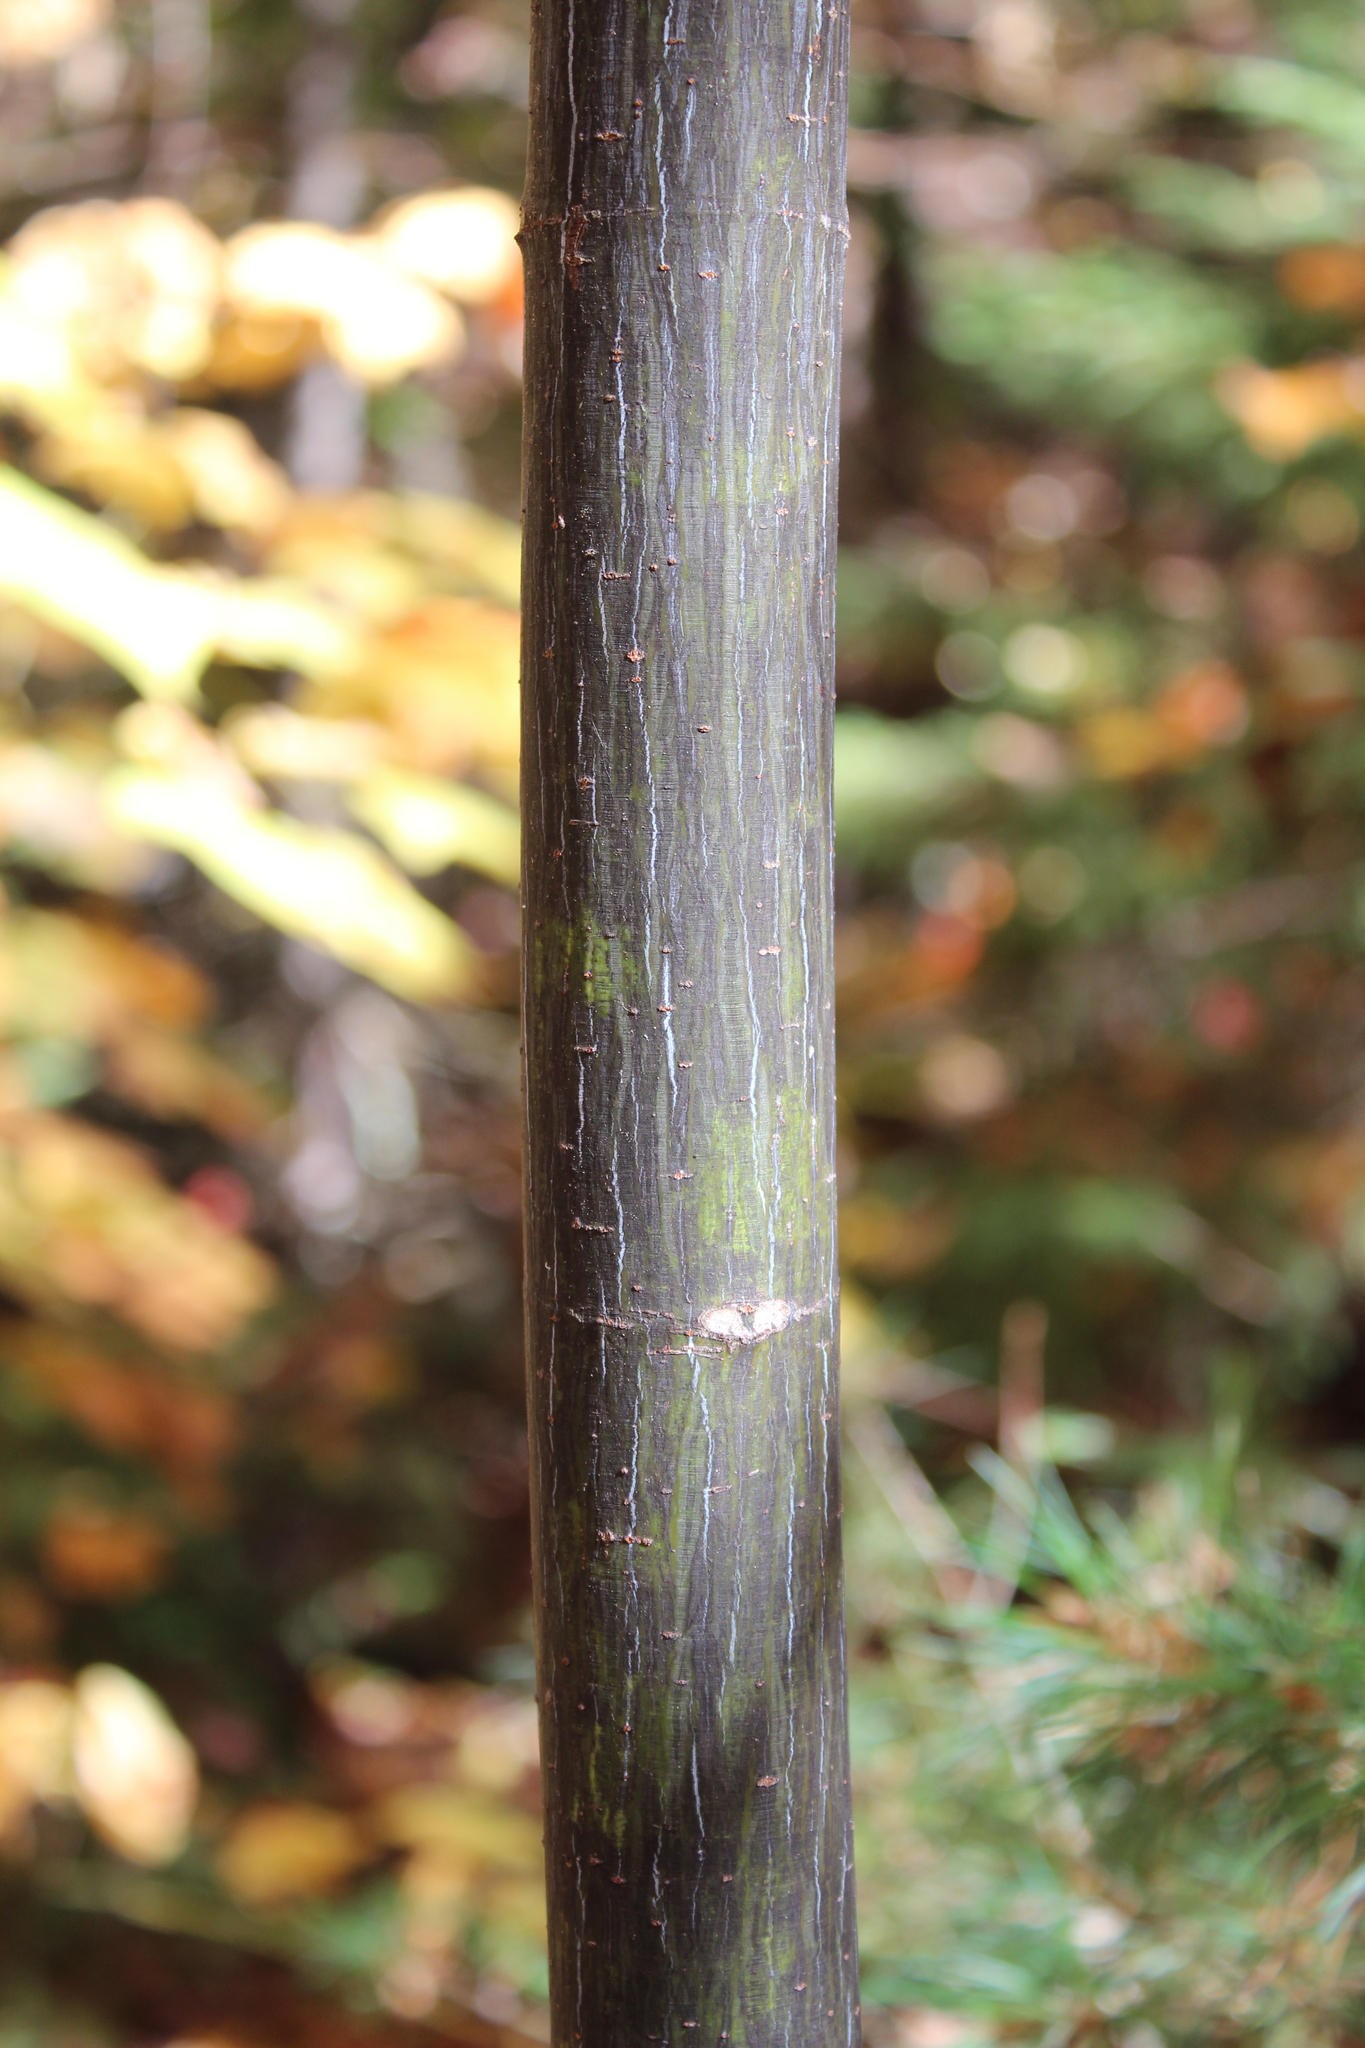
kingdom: Plantae
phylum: Tracheophyta
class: Magnoliopsida
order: Sapindales
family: Sapindaceae
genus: Acer
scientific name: Acer pensylvanicum
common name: Moosewood
